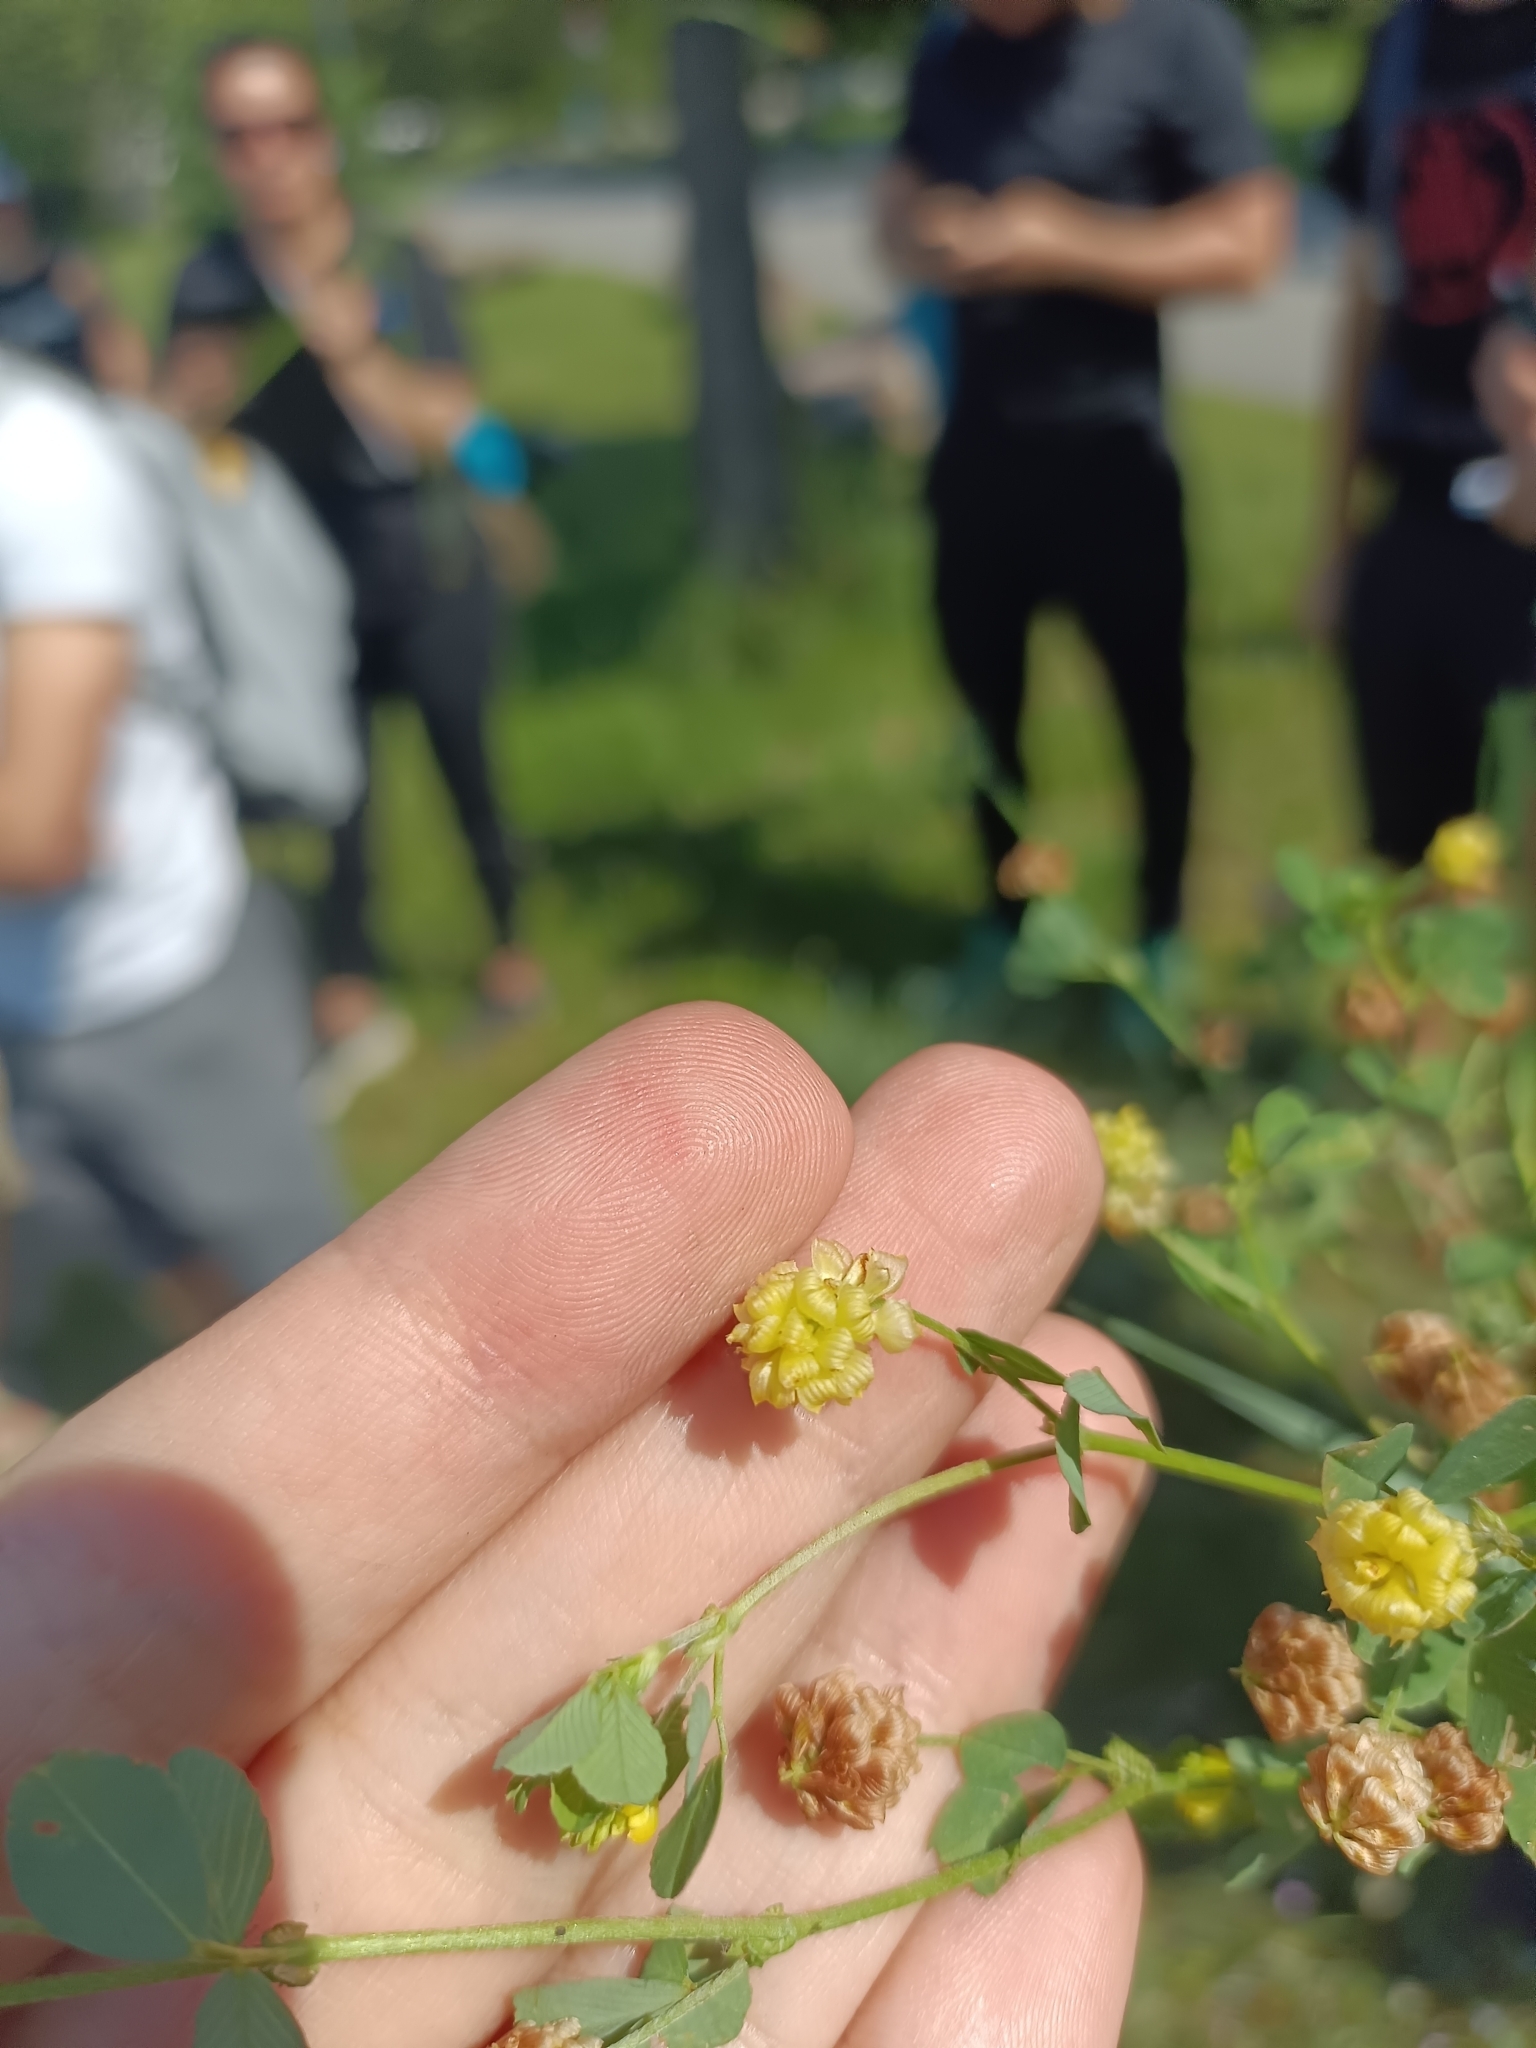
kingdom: Plantae
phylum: Tracheophyta
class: Magnoliopsida
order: Fabales
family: Fabaceae
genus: Trifolium
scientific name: Trifolium campestre
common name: Field clover
